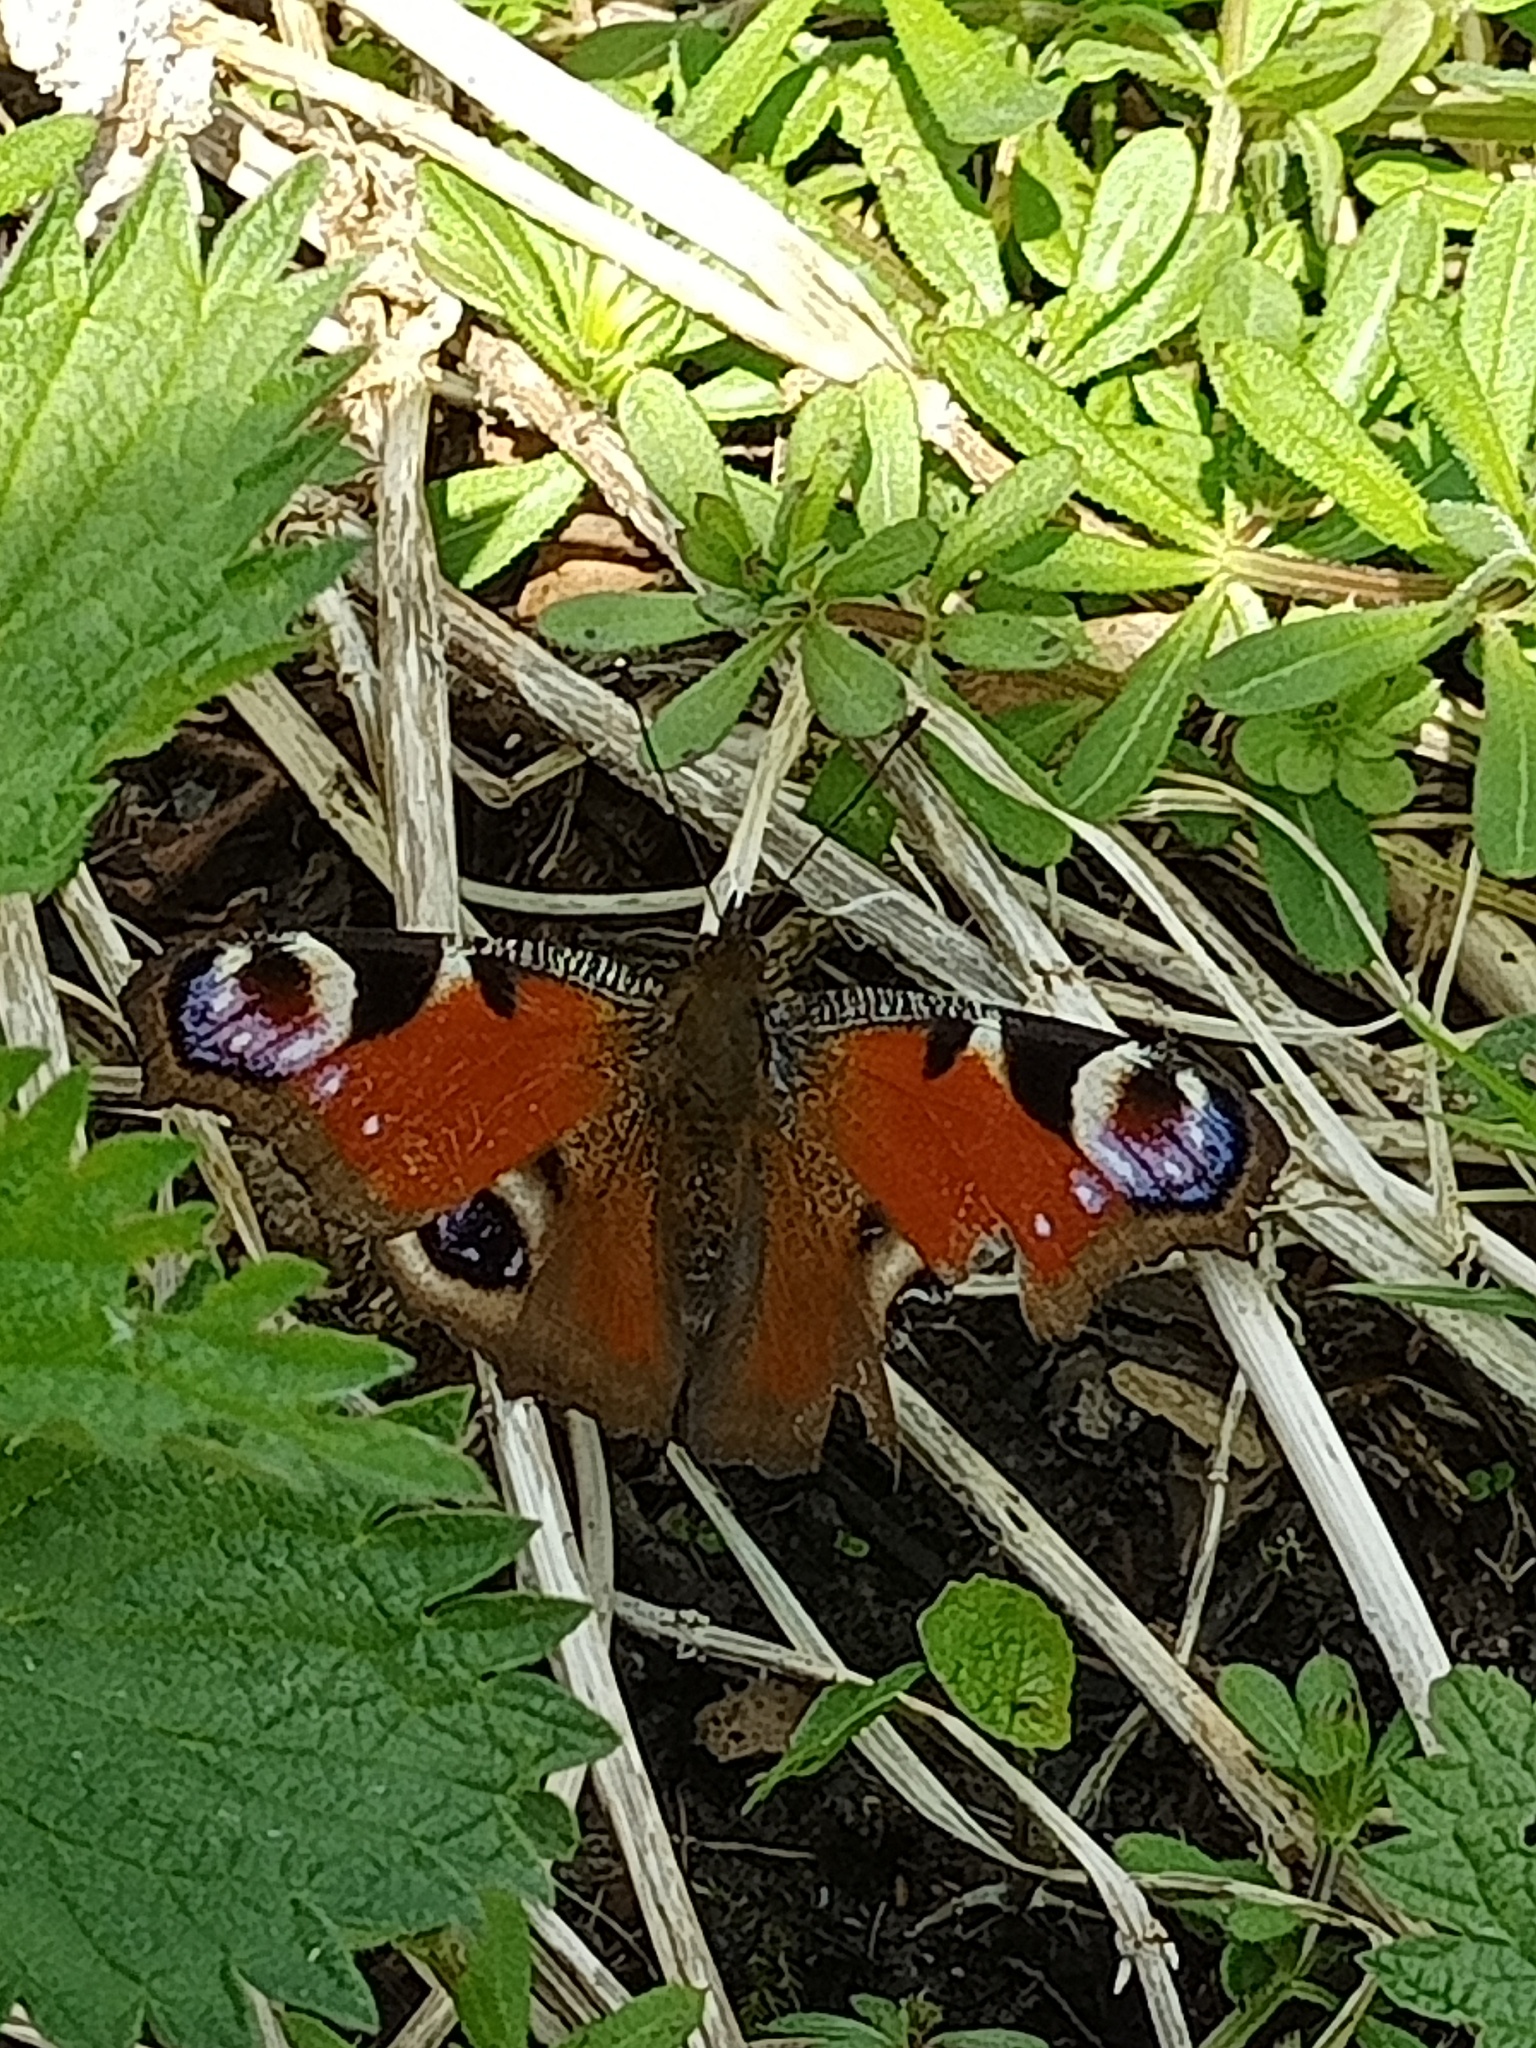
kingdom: Animalia
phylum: Arthropoda
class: Insecta
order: Lepidoptera
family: Nymphalidae
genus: Aglais
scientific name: Aglais io
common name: Peacock
